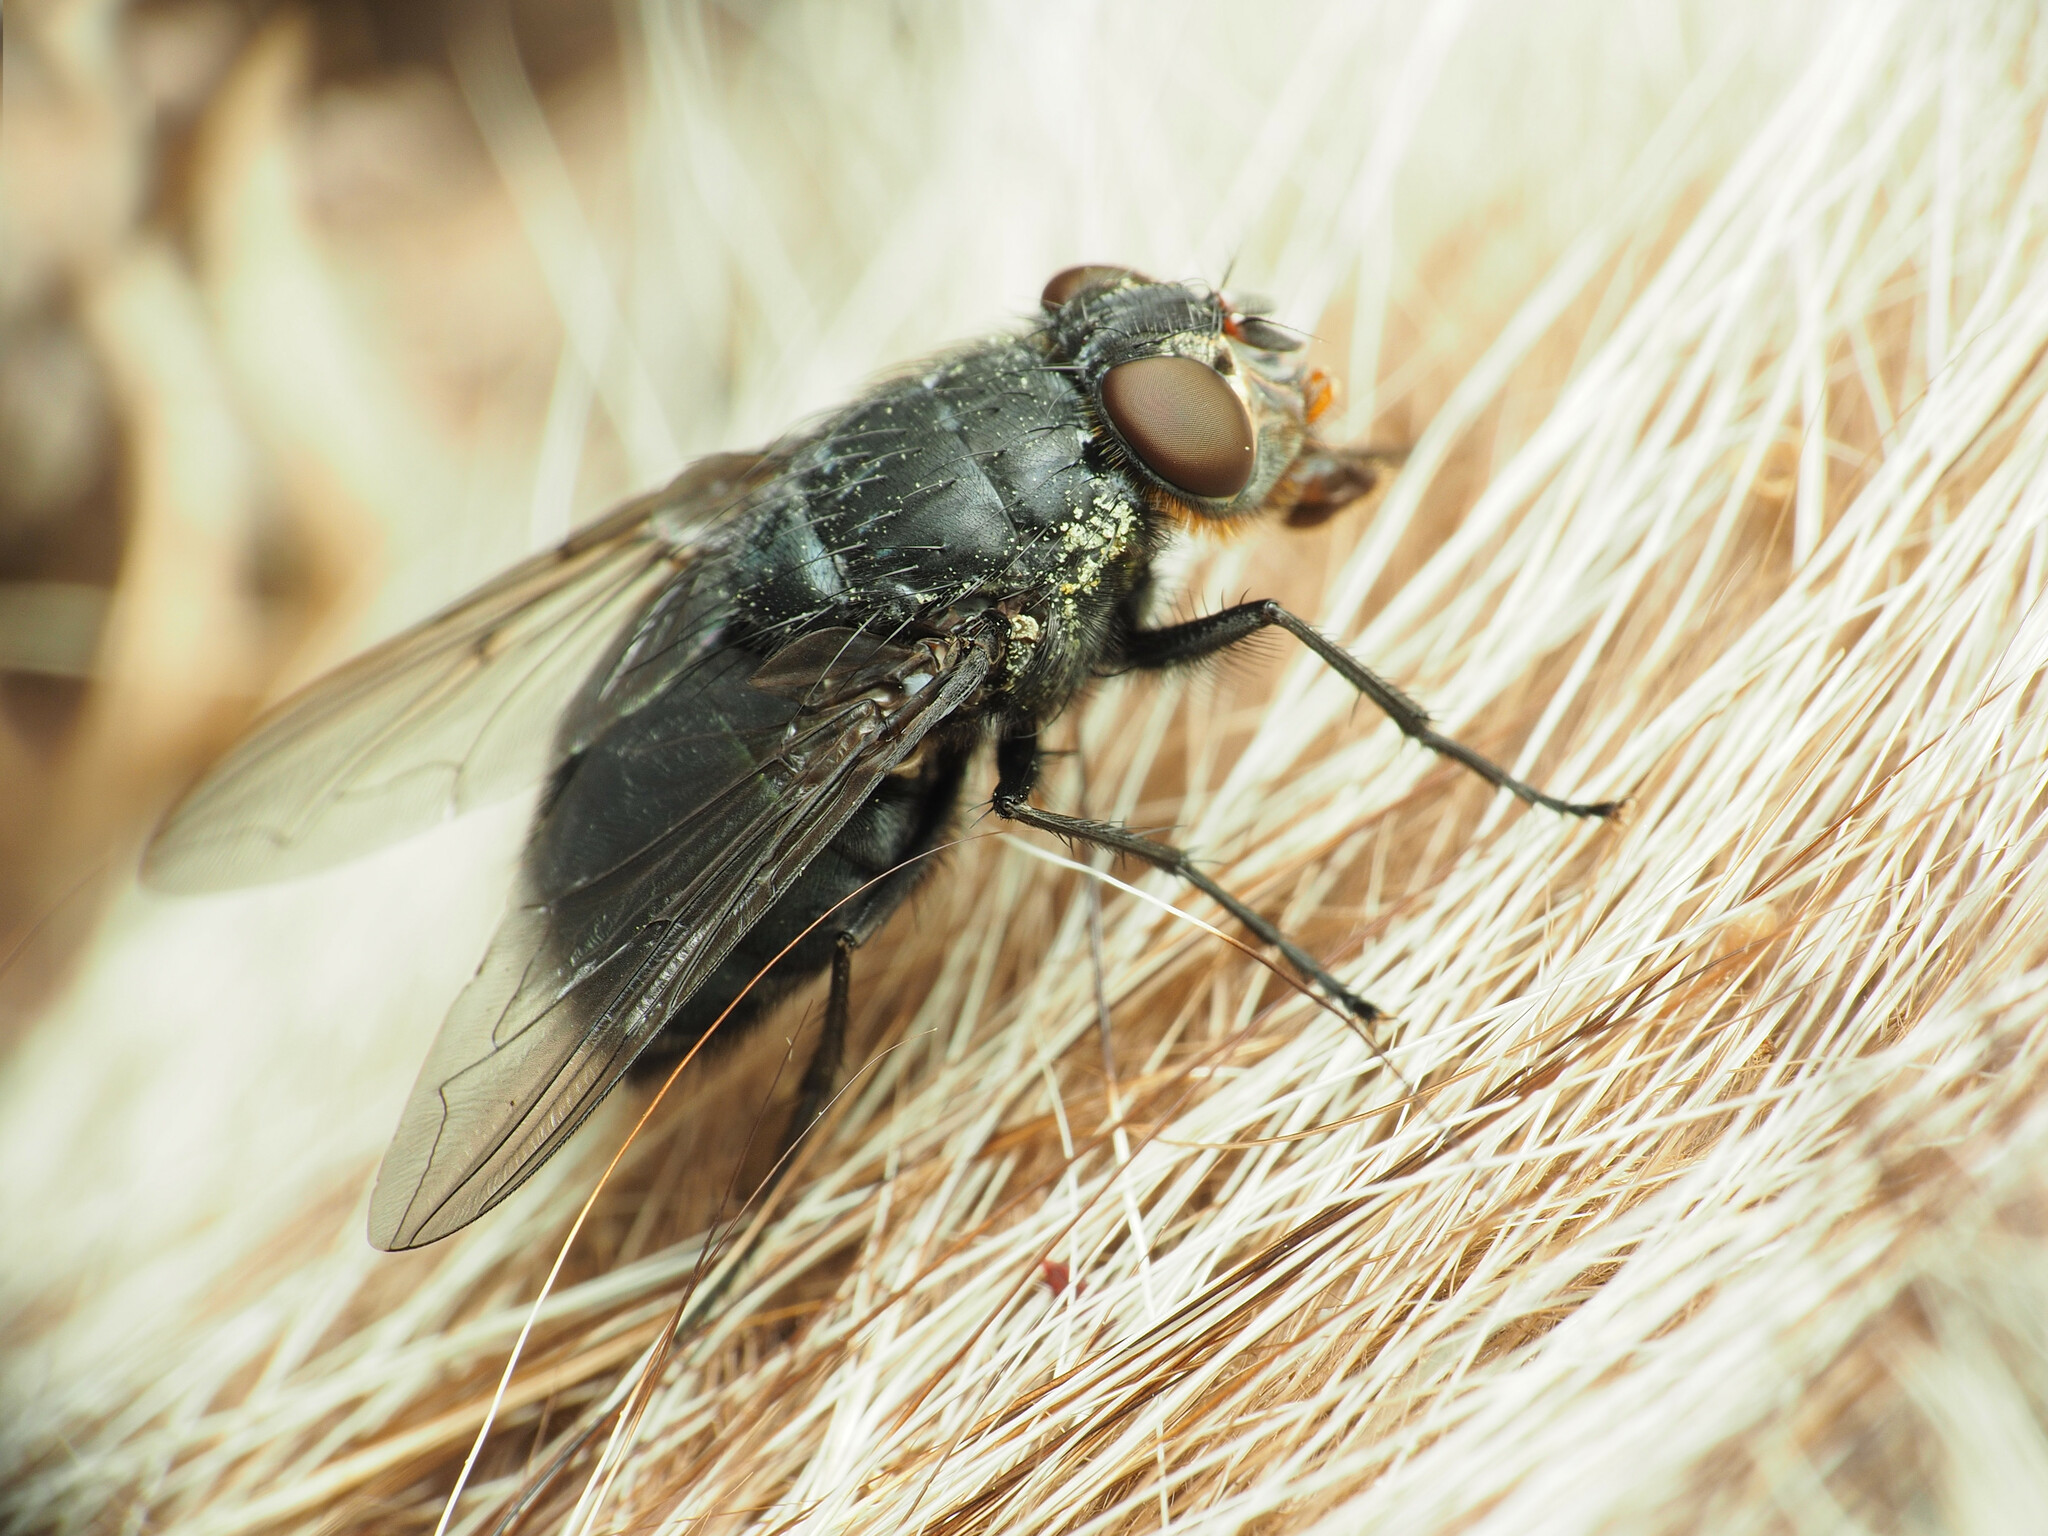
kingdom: Animalia
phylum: Arthropoda
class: Insecta
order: Diptera
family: Calliphoridae
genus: Calliphora
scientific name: Calliphora vomitoria
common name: Blue bottle fly
